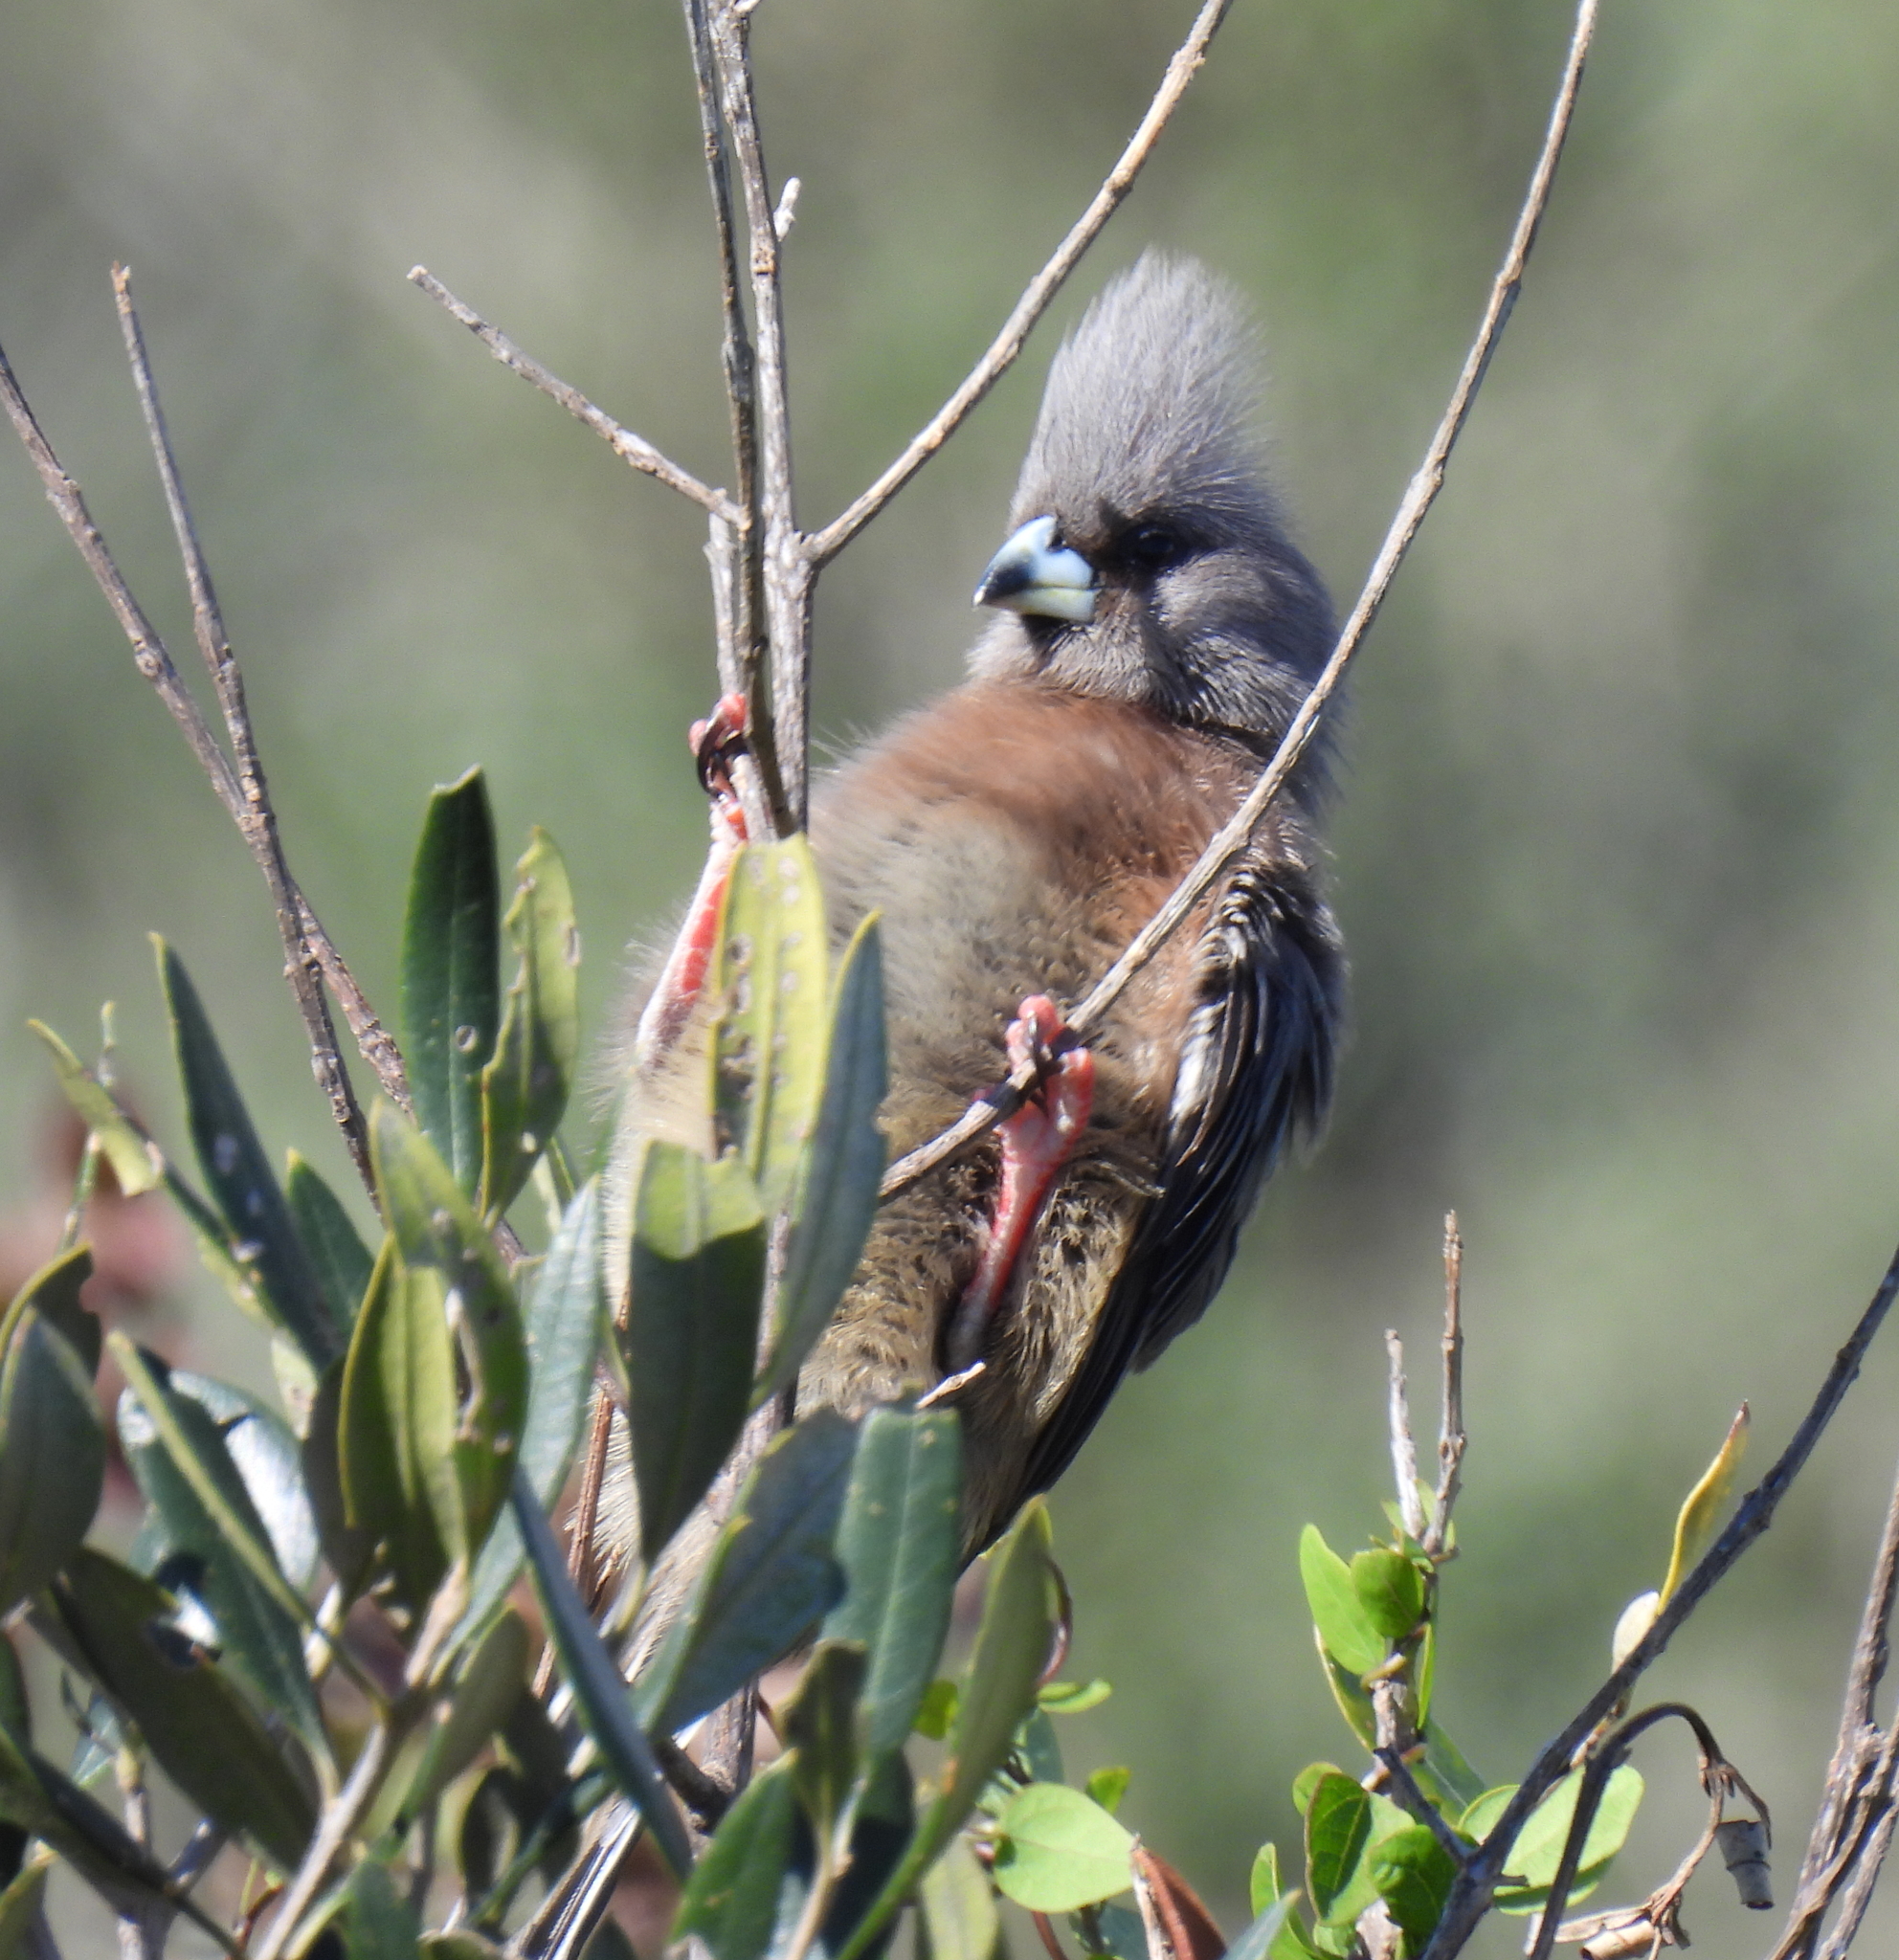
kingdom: Animalia
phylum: Chordata
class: Aves
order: Coliiformes
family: Coliidae
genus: Colius
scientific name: Colius colius
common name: White-backed mousebird
